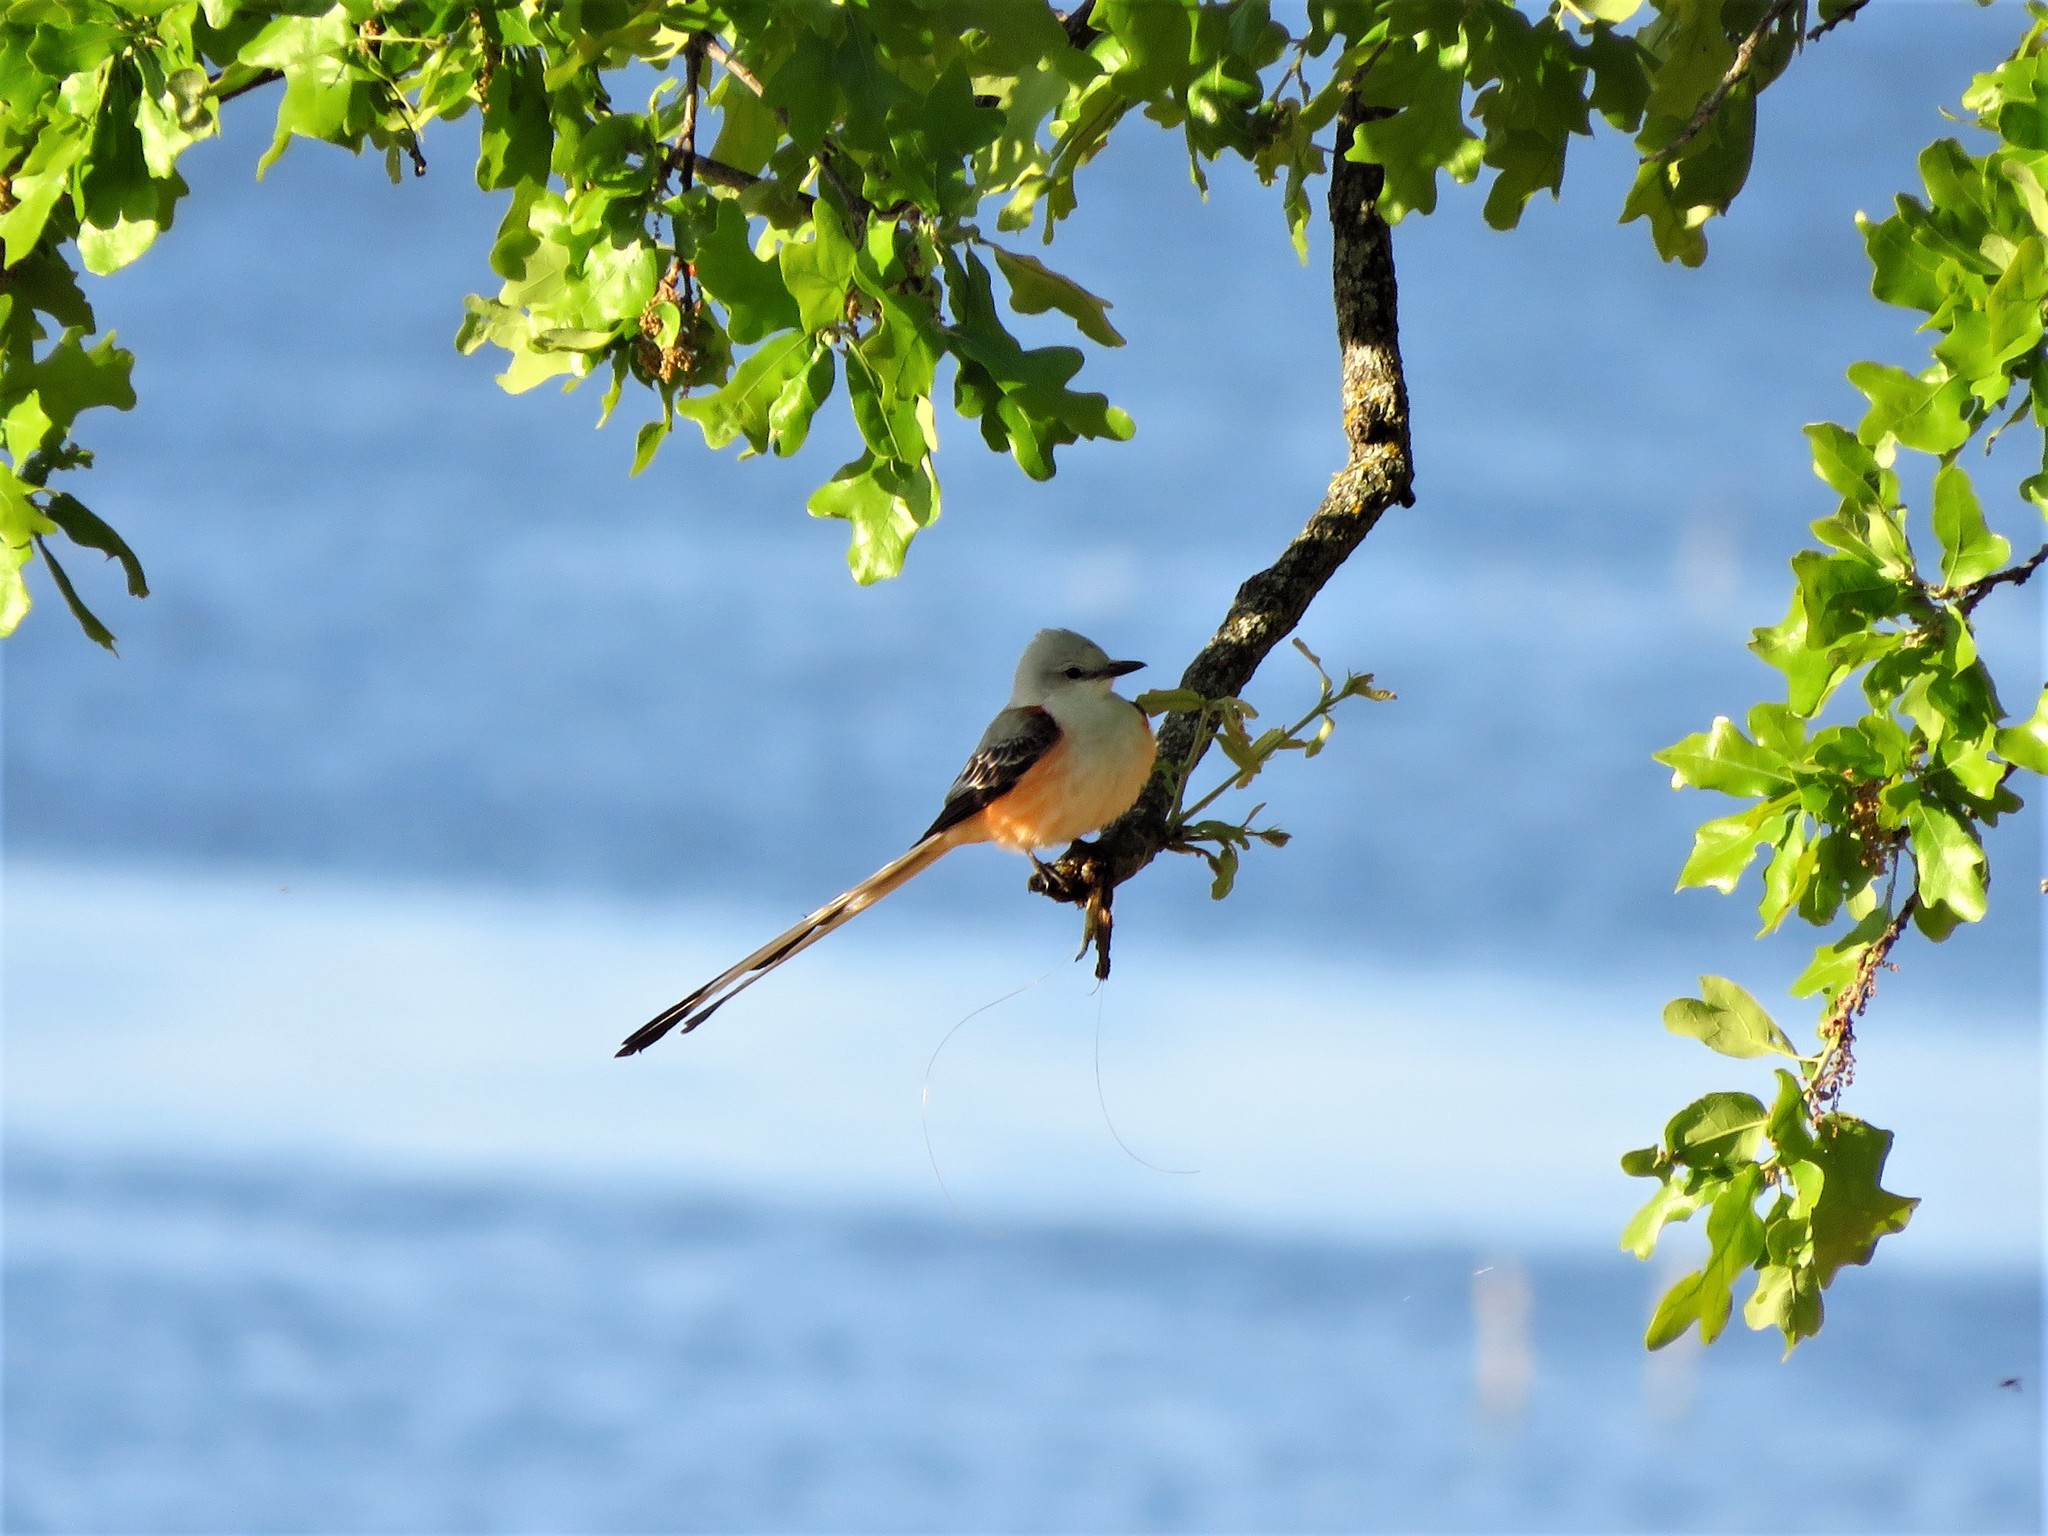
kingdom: Animalia
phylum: Chordata
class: Aves
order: Passeriformes
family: Tyrannidae
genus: Tyrannus
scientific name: Tyrannus forficatus
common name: Scissor-tailed flycatcher
